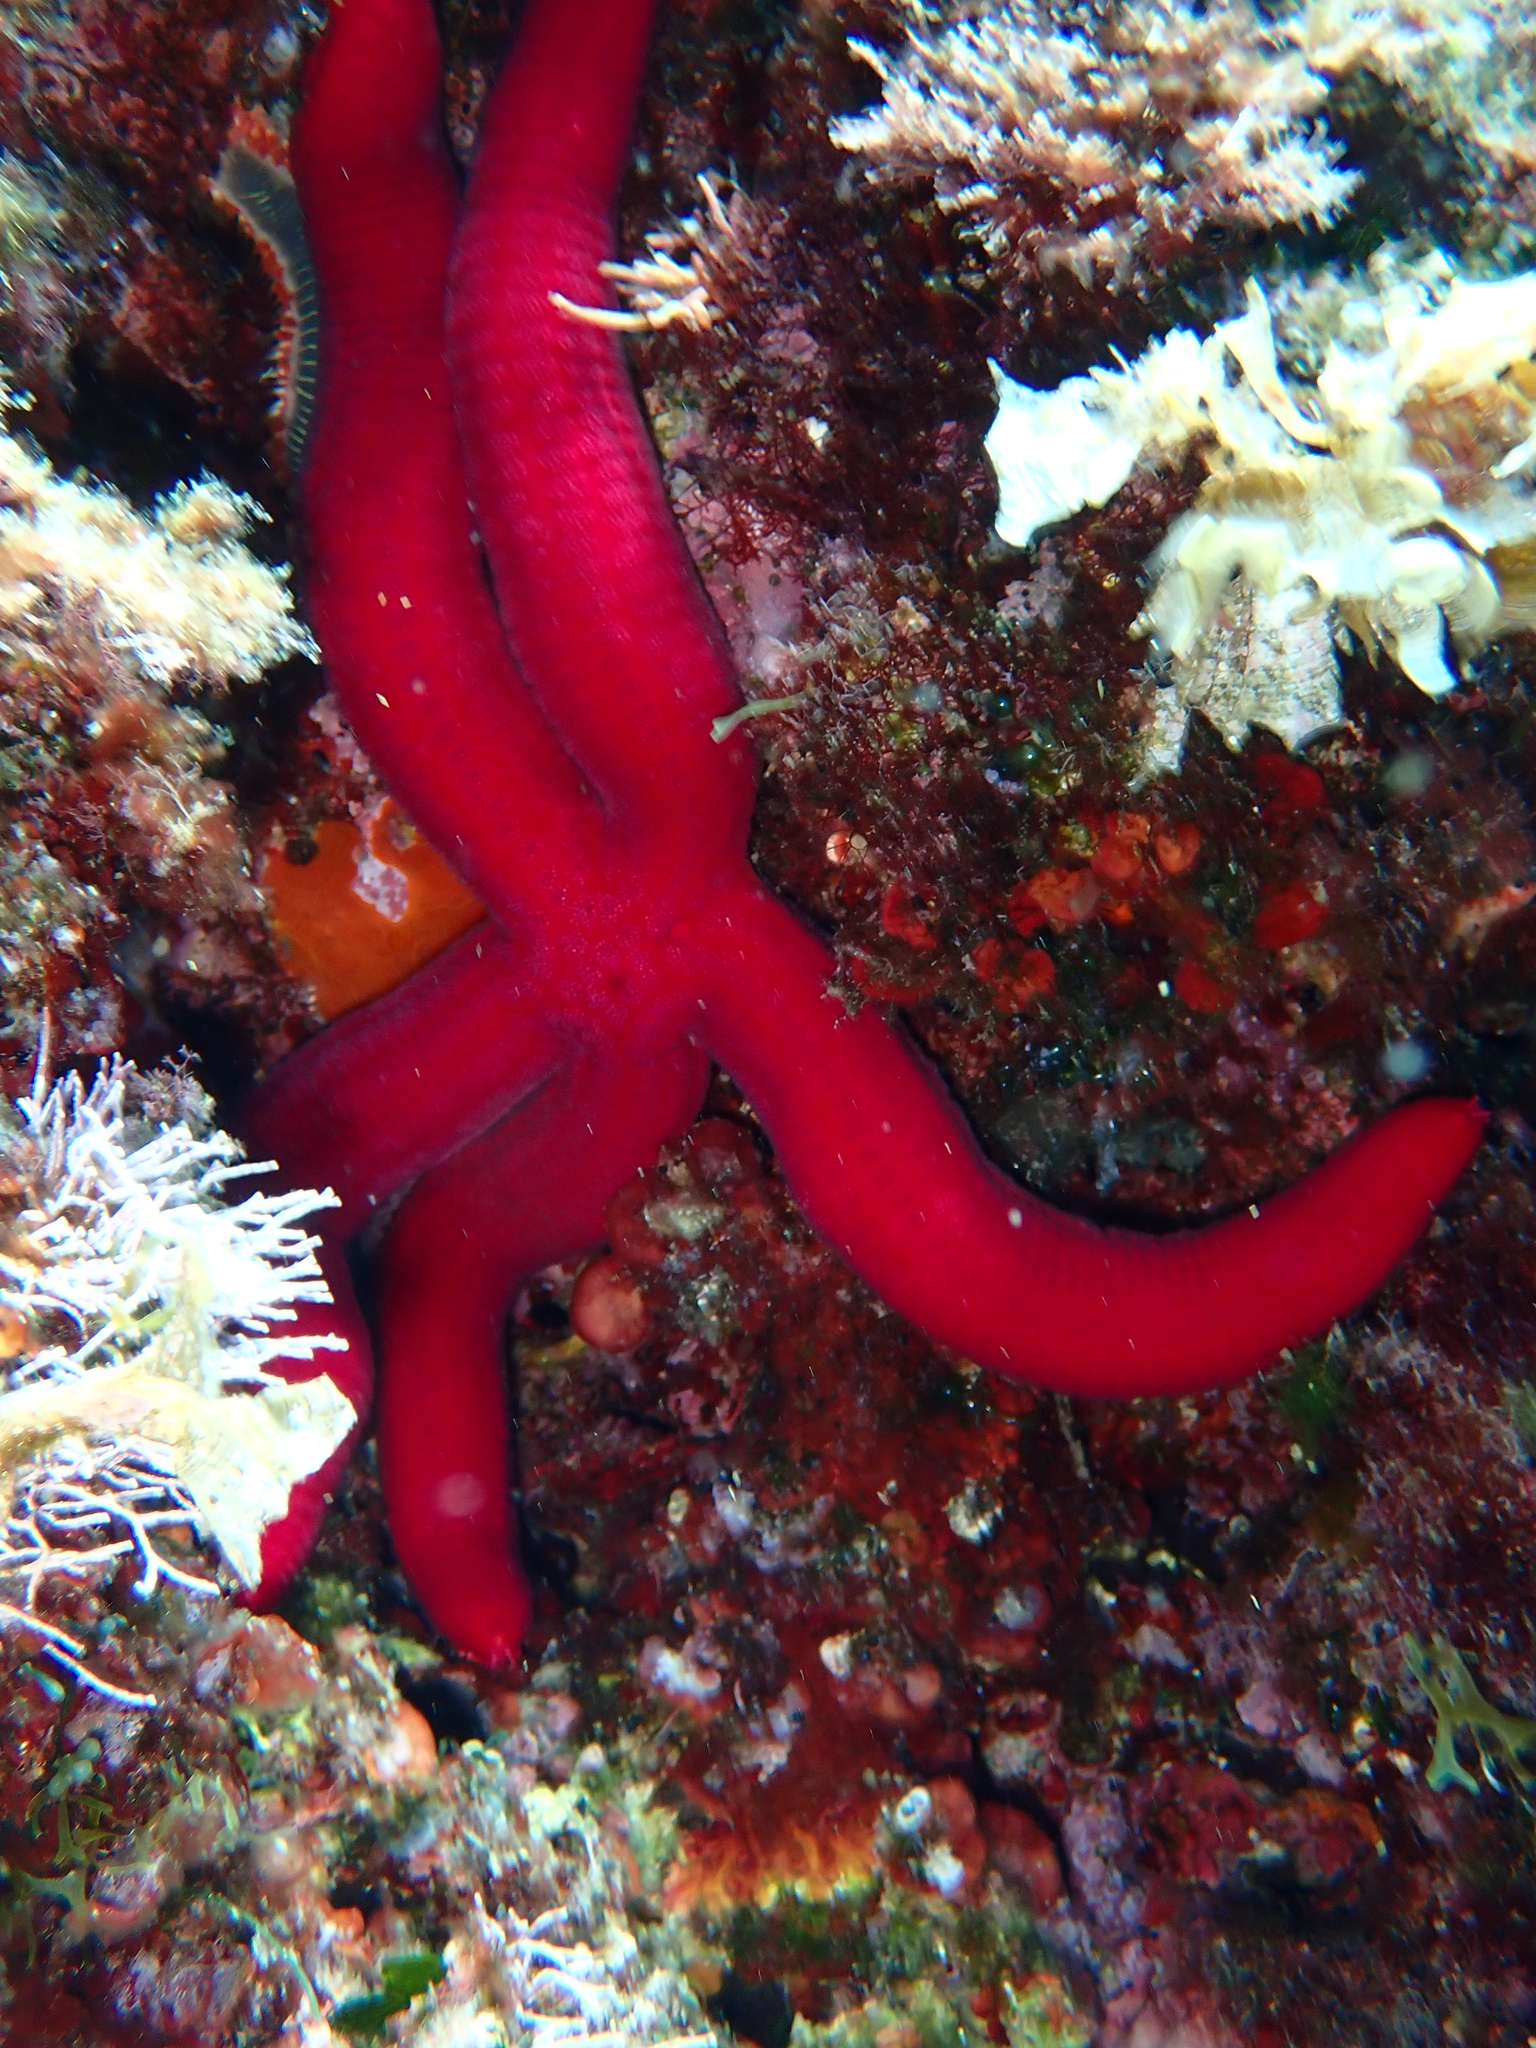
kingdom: Animalia
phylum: Echinodermata
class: Asteroidea
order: Valvatida
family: Ophidiasteridae
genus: Ophidiaster
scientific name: Ophidiaster ophidianus
